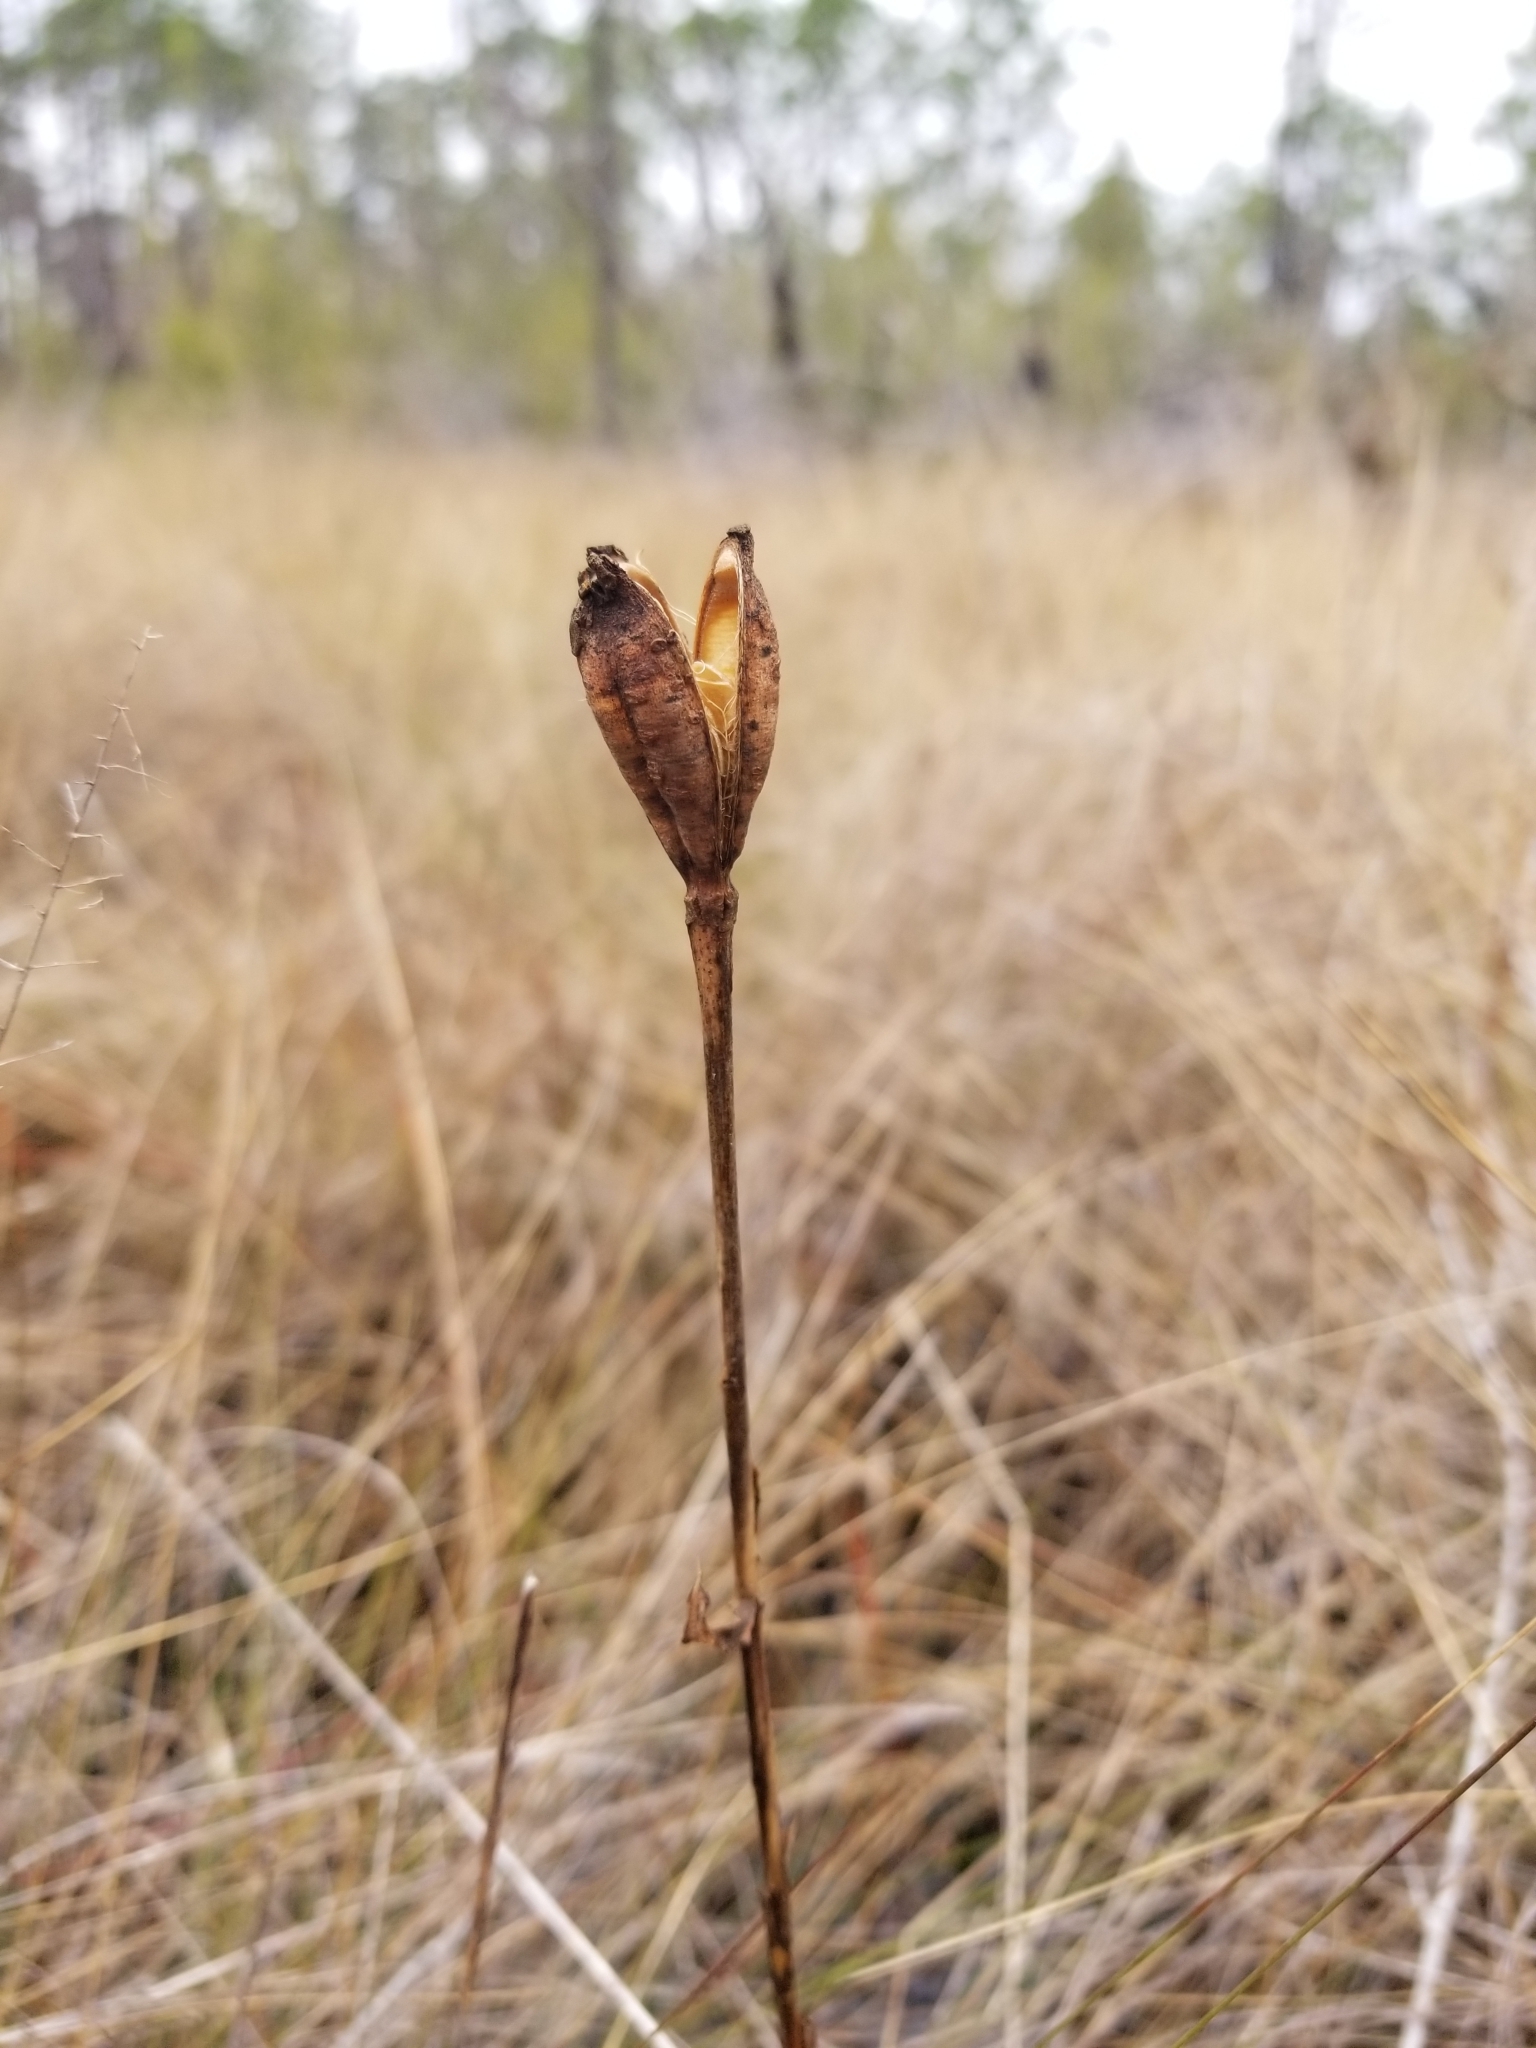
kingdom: Plantae
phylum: Tracheophyta
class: Liliopsida
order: Liliales
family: Liliaceae
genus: Lilium
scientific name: Lilium catesbaei
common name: Catesby's lily
